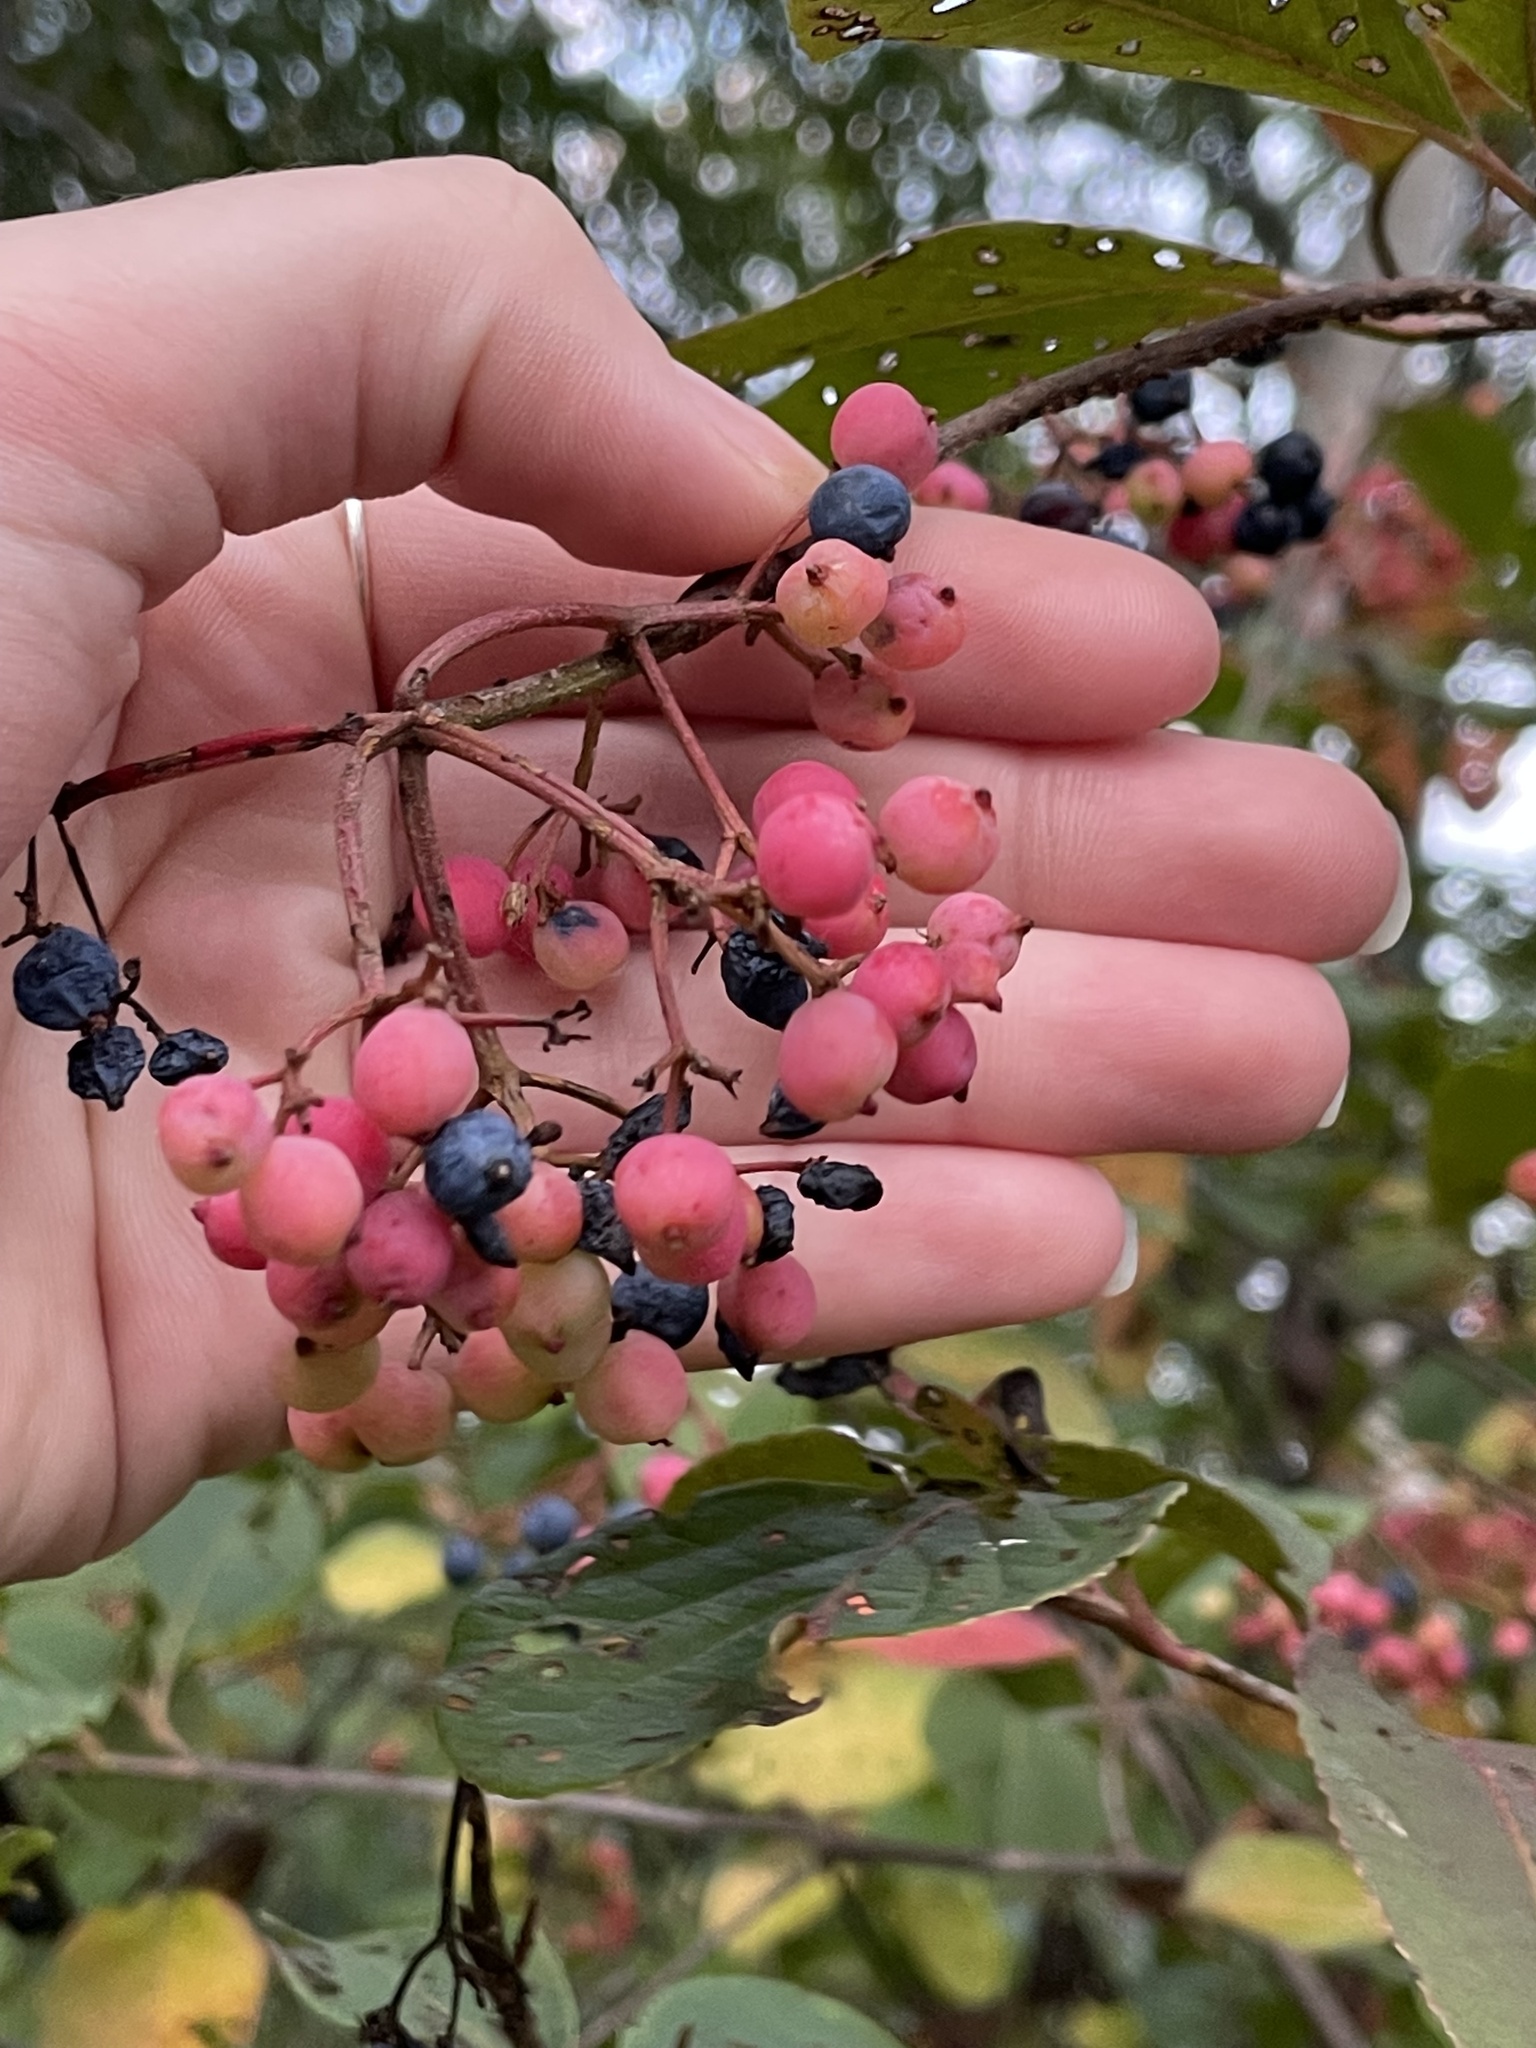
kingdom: Plantae
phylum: Tracheophyta
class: Magnoliopsida
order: Dipsacales
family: Viburnaceae
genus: Viburnum
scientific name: Viburnum cassinoides
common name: Swamp haw
